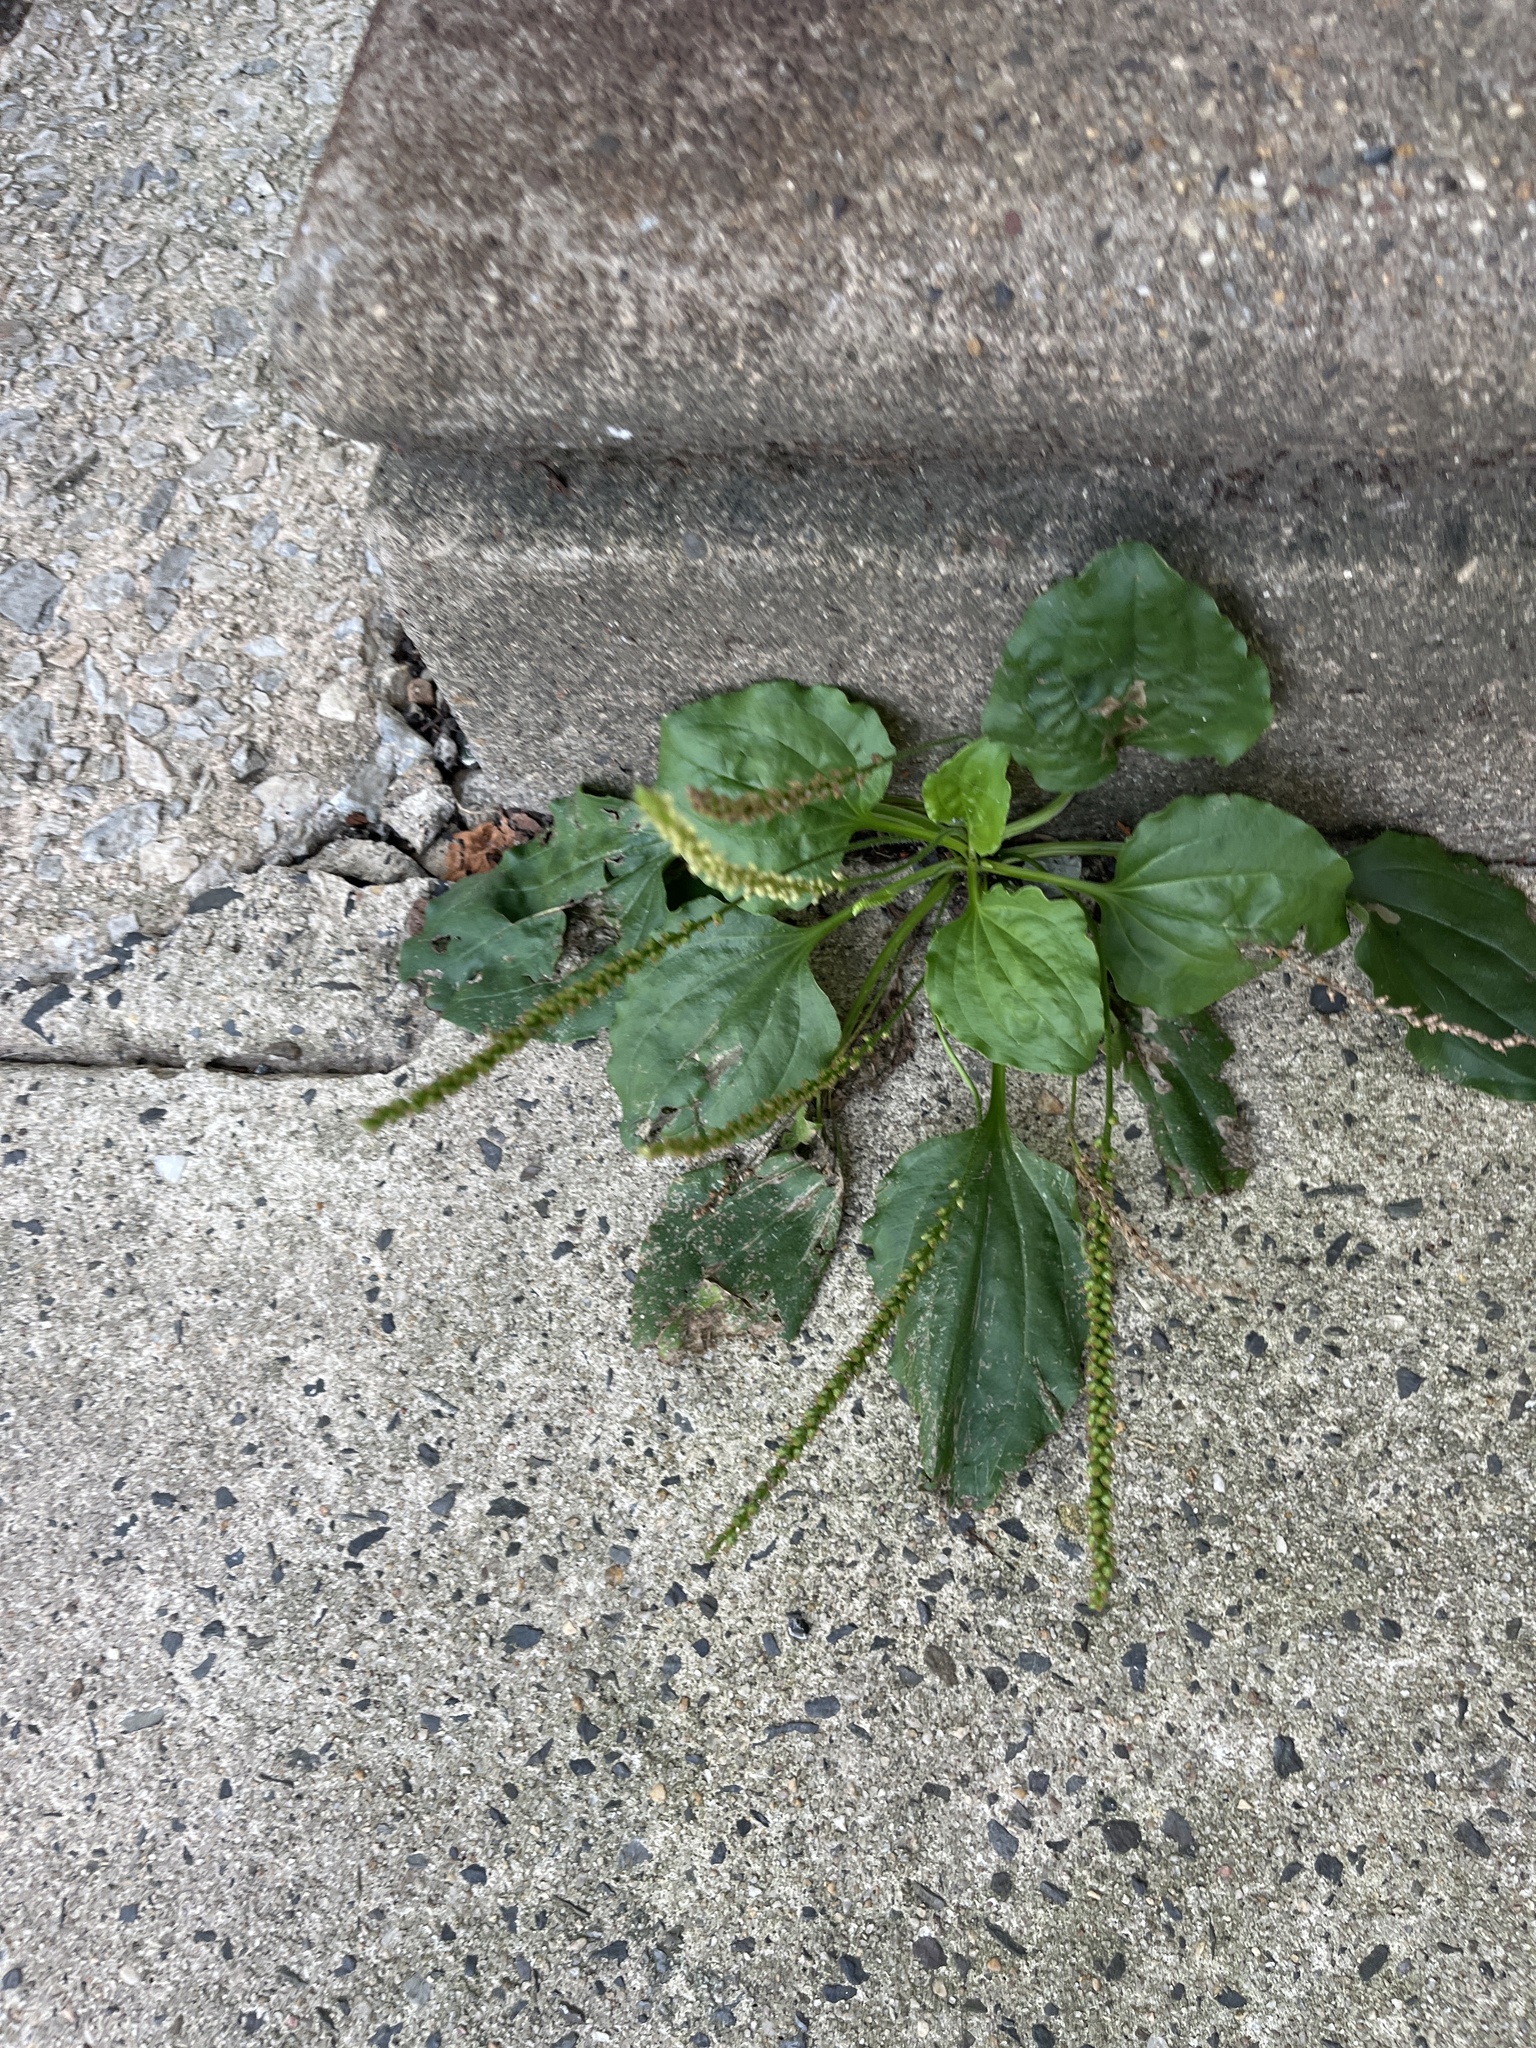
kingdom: Plantae
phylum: Tracheophyta
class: Magnoliopsida
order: Lamiales
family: Plantaginaceae
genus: Plantago
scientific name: Plantago major
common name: Common plantain
